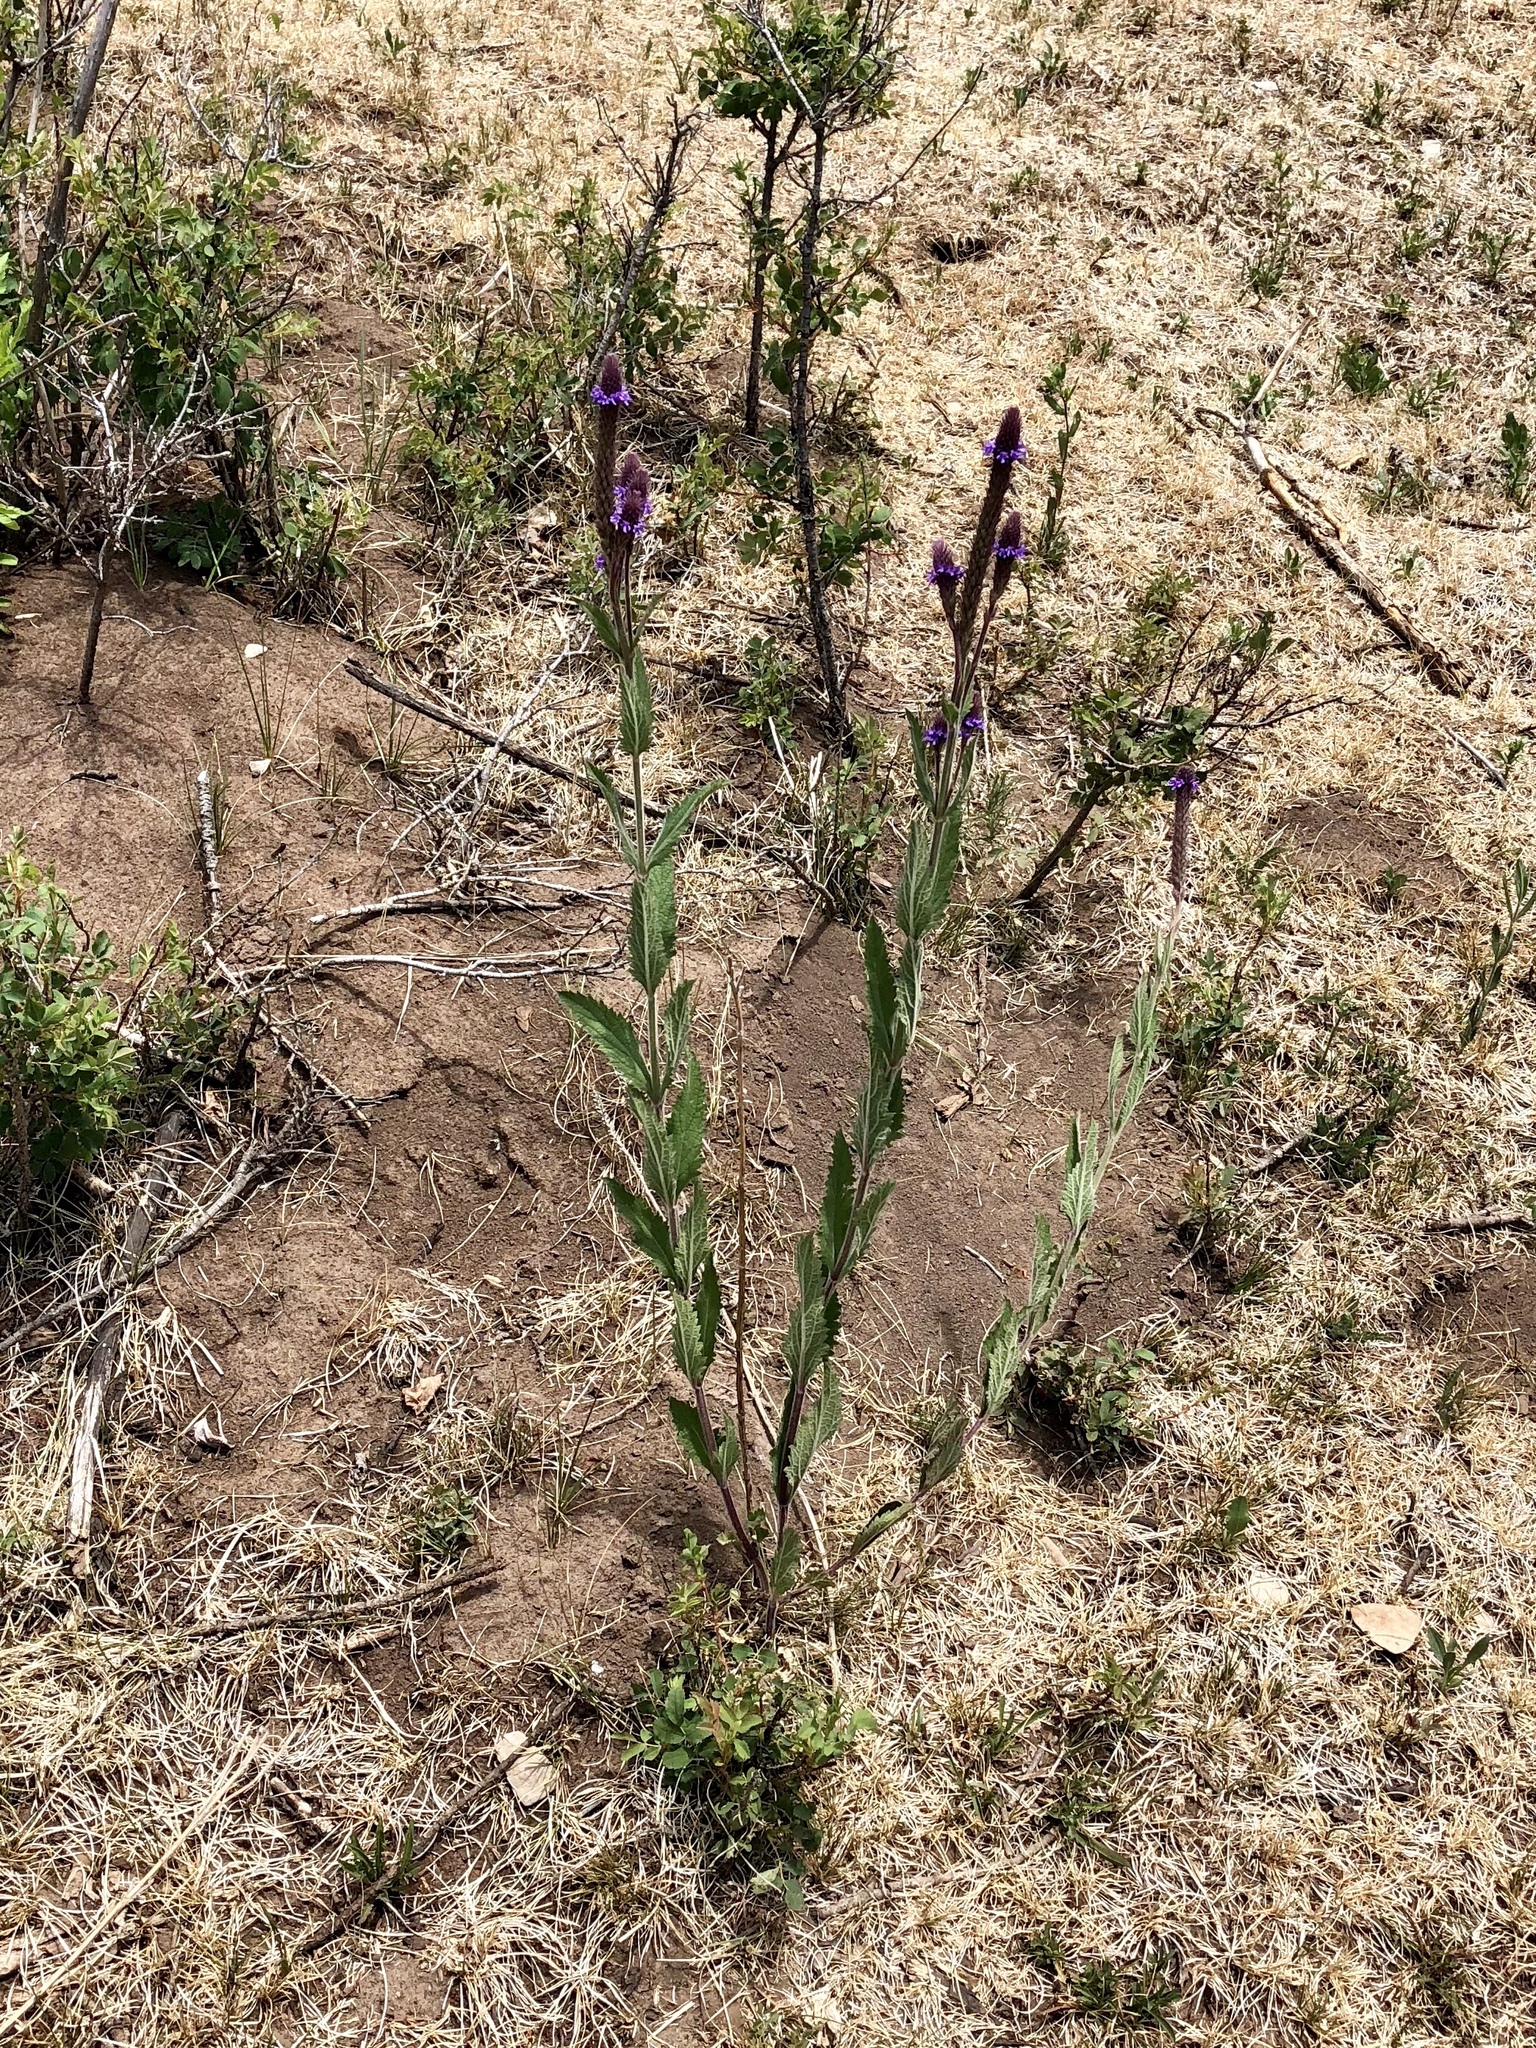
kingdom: Plantae
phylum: Tracheophyta
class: Magnoliopsida
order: Lamiales
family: Verbenaceae
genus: Verbena
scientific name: Verbena macdougalii
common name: New mexico vervain
